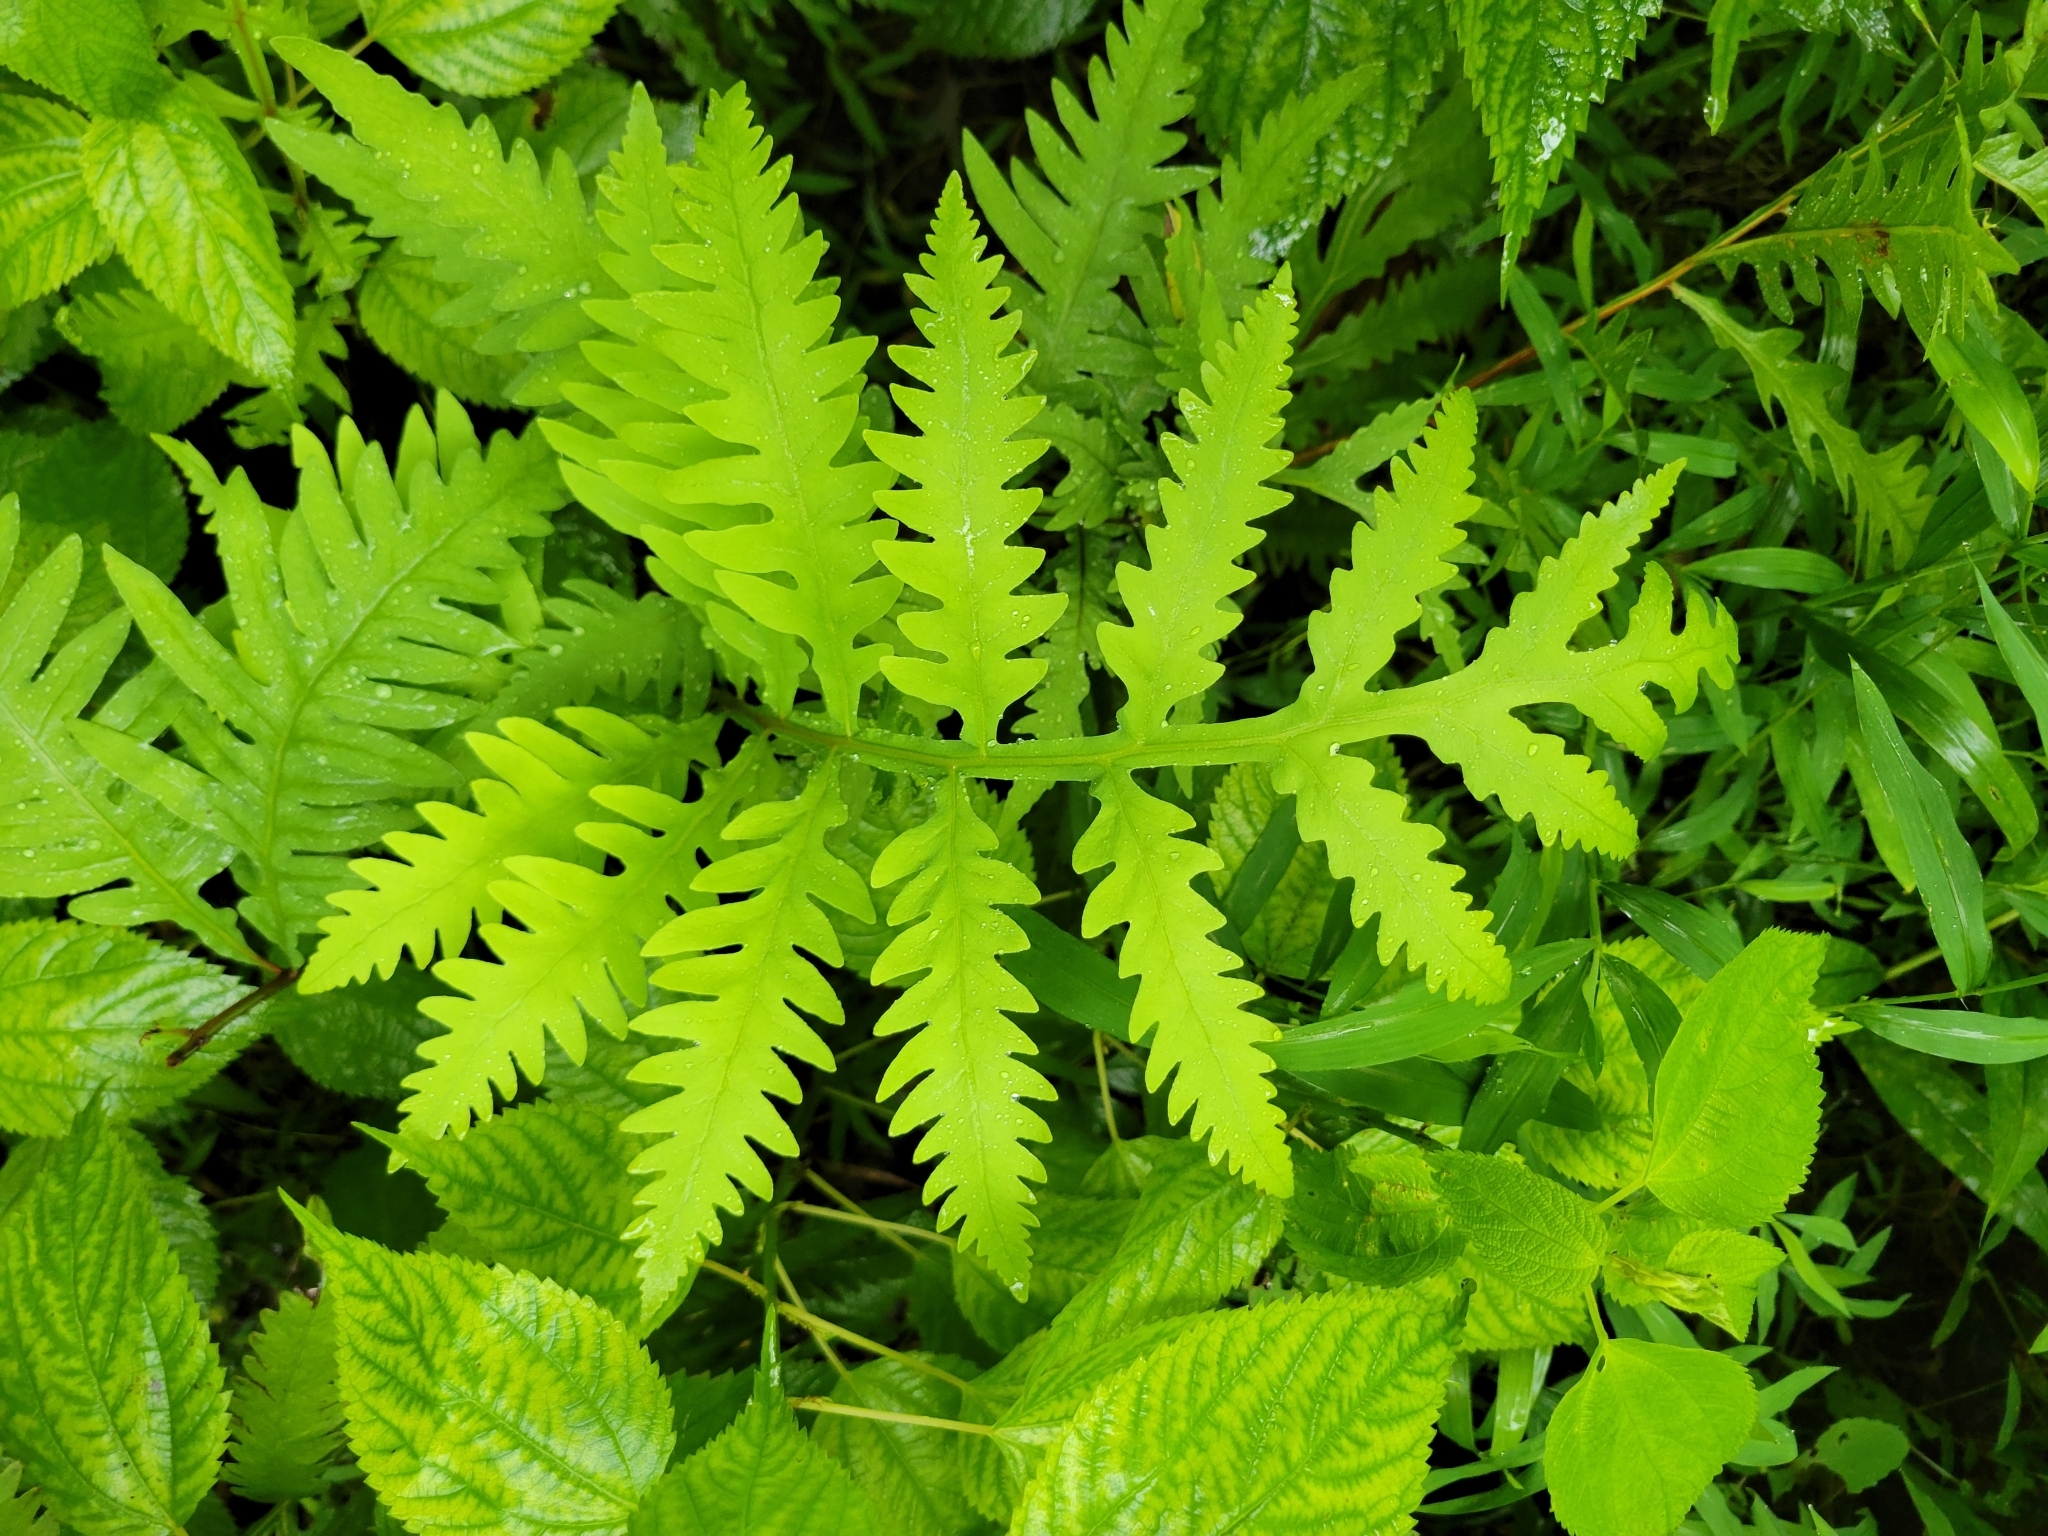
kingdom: Plantae
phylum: Tracheophyta
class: Polypodiopsida
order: Polypodiales
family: Onocleaceae
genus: Onoclea
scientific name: Onoclea sensibilis
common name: Sensitive fern
